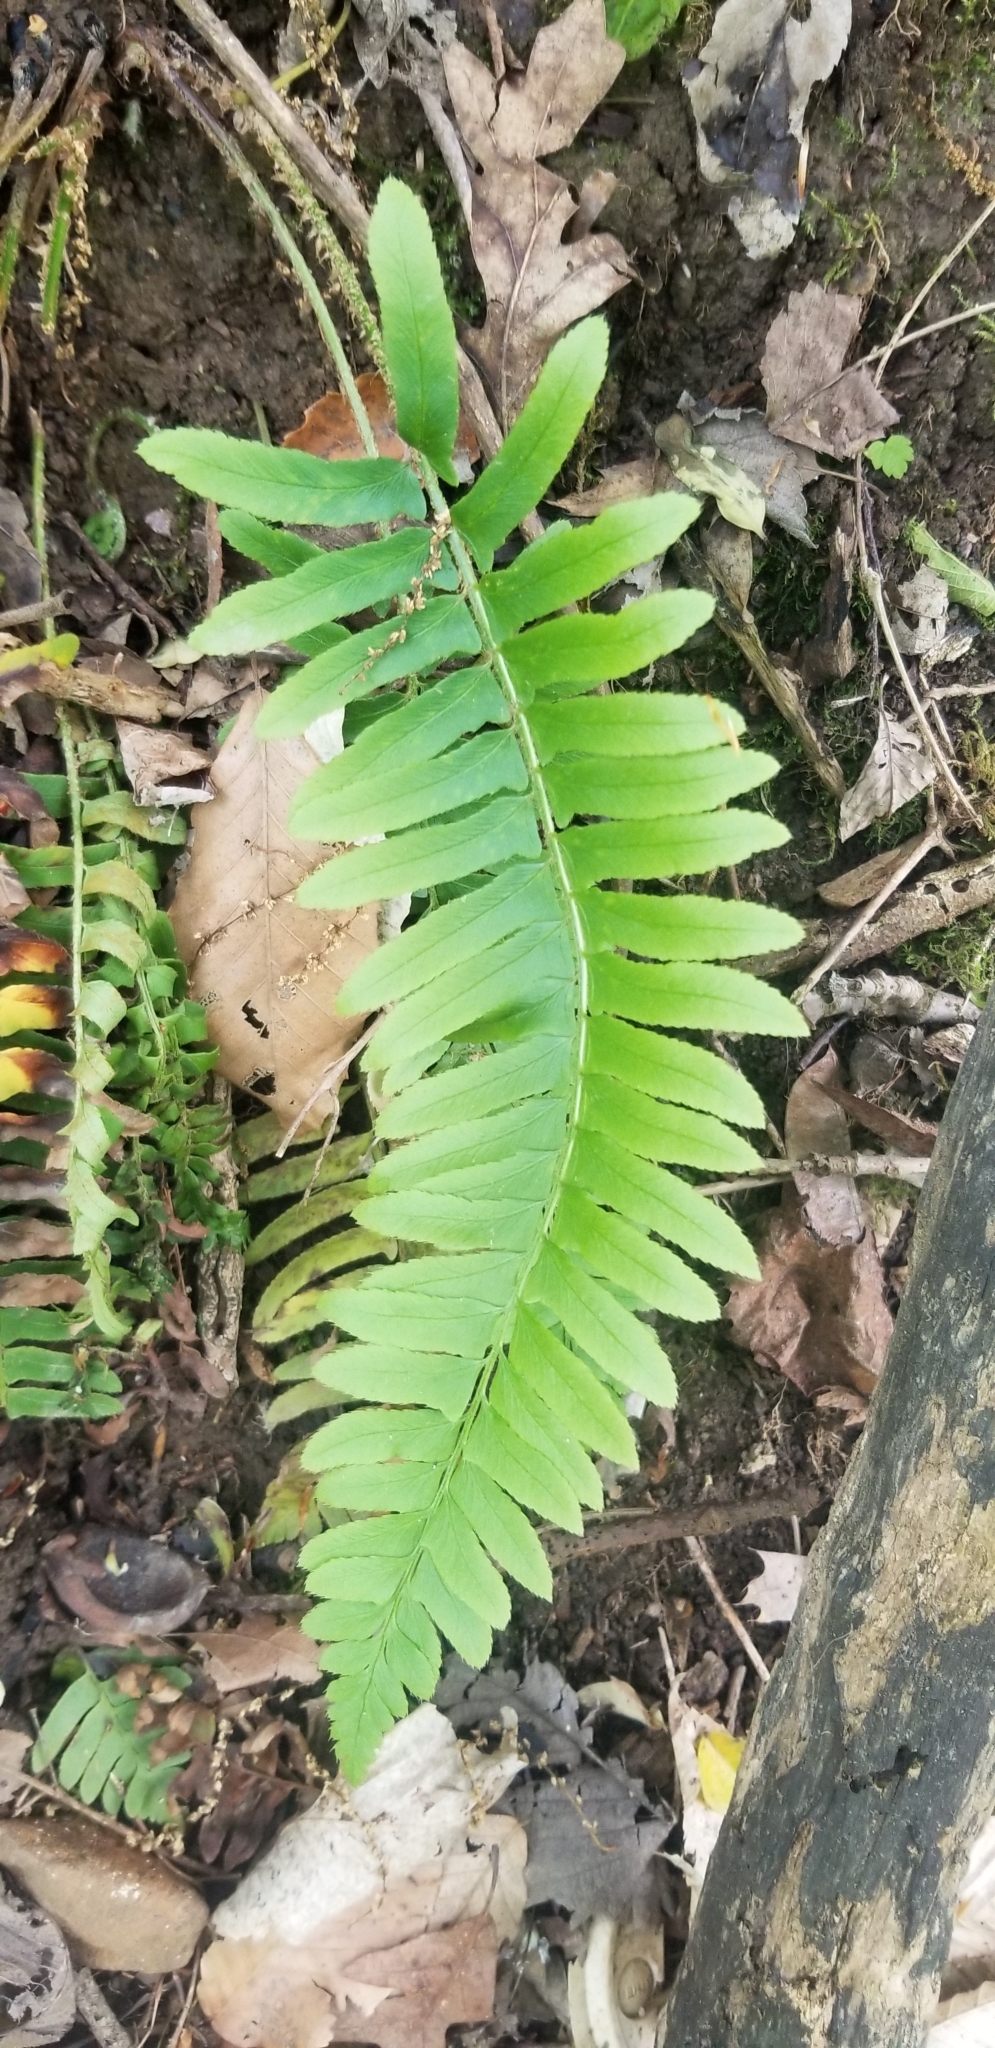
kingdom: Plantae
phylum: Tracheophyta
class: Polypodiopsida
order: Polypodiales
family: Dryopteridaceae
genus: Polystichum
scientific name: Polystichum acrostichoides
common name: Christmas fern
